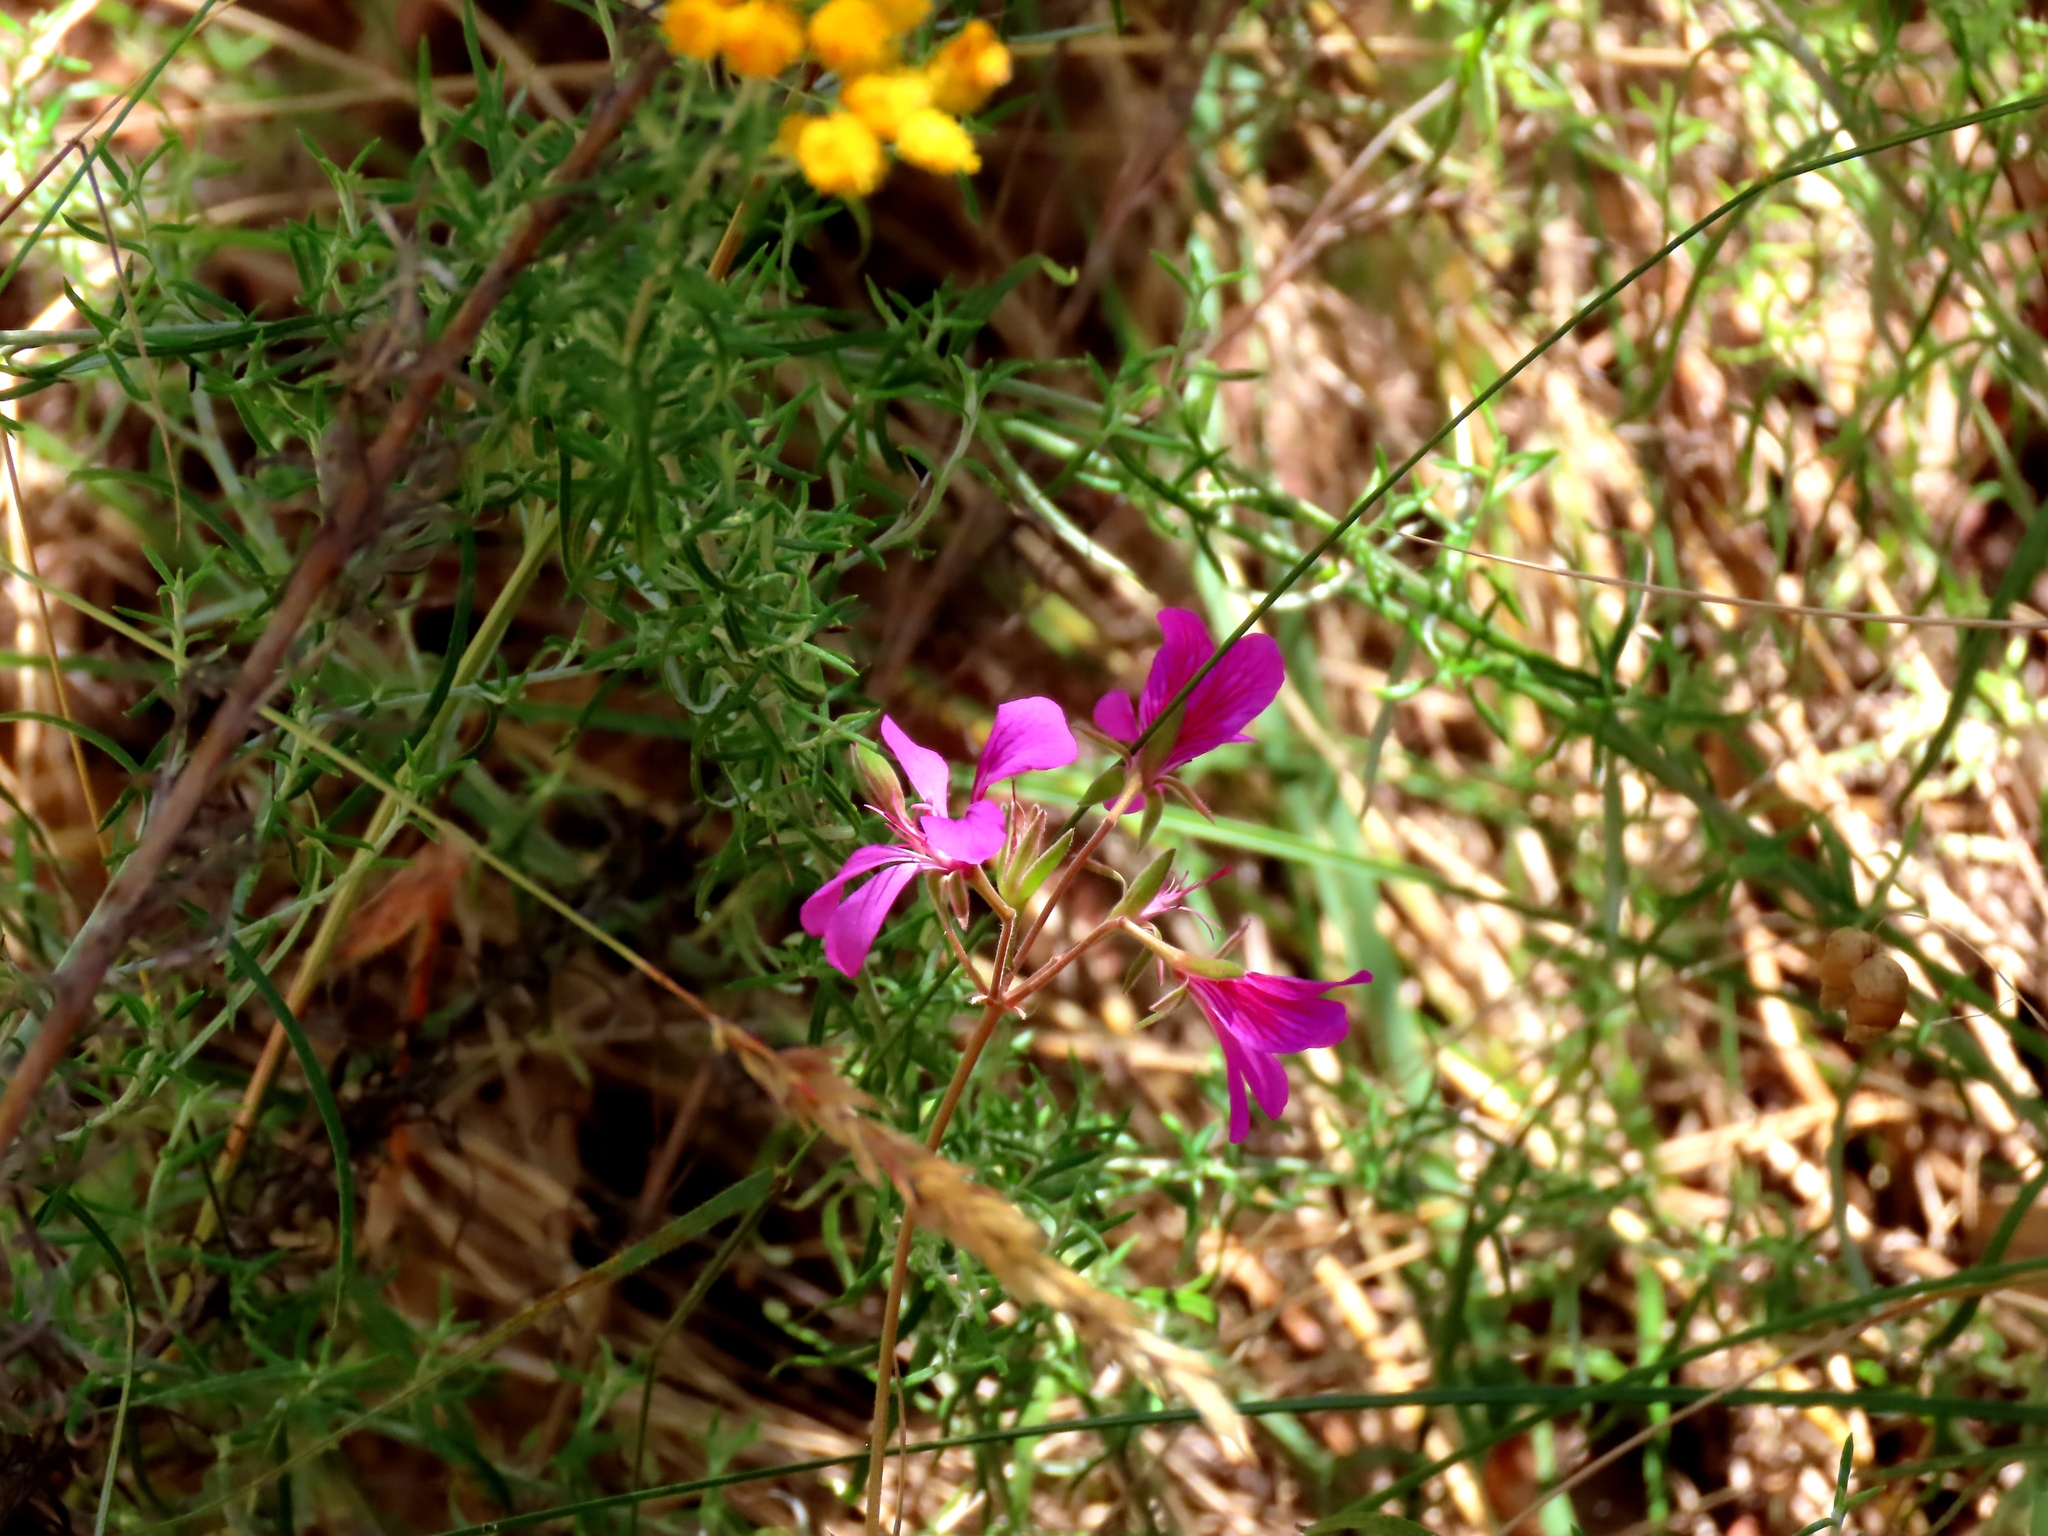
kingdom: Plantae
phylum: Tracheophyta
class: Magnoliopsida
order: Geraniales
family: Geraniaceae
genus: Pelargonium
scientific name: Pelargonium rodneyanum
